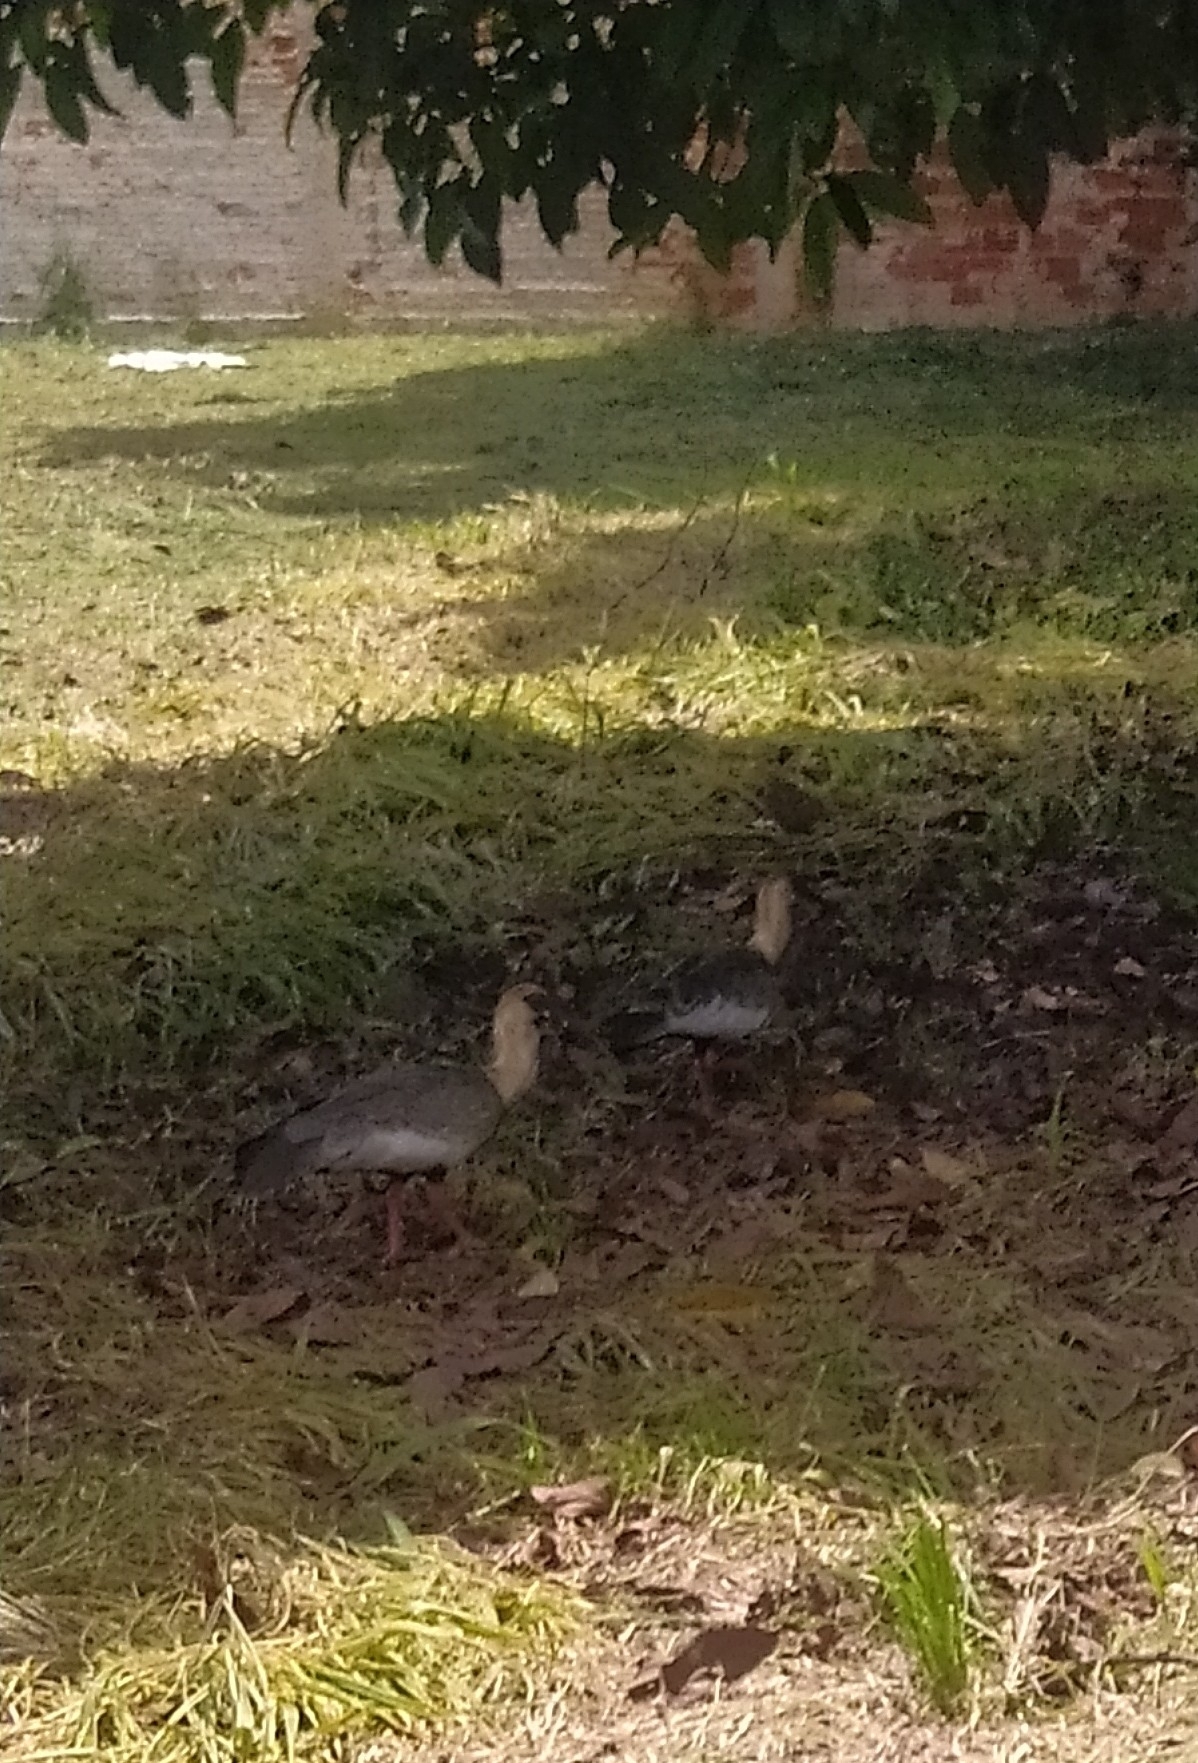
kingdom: Animalia
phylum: Chordata
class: Aves
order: Pelecaniformes
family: Threskiornithidae
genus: Theristicus
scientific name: Theristicus caudatus
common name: Buff-necked ibis
